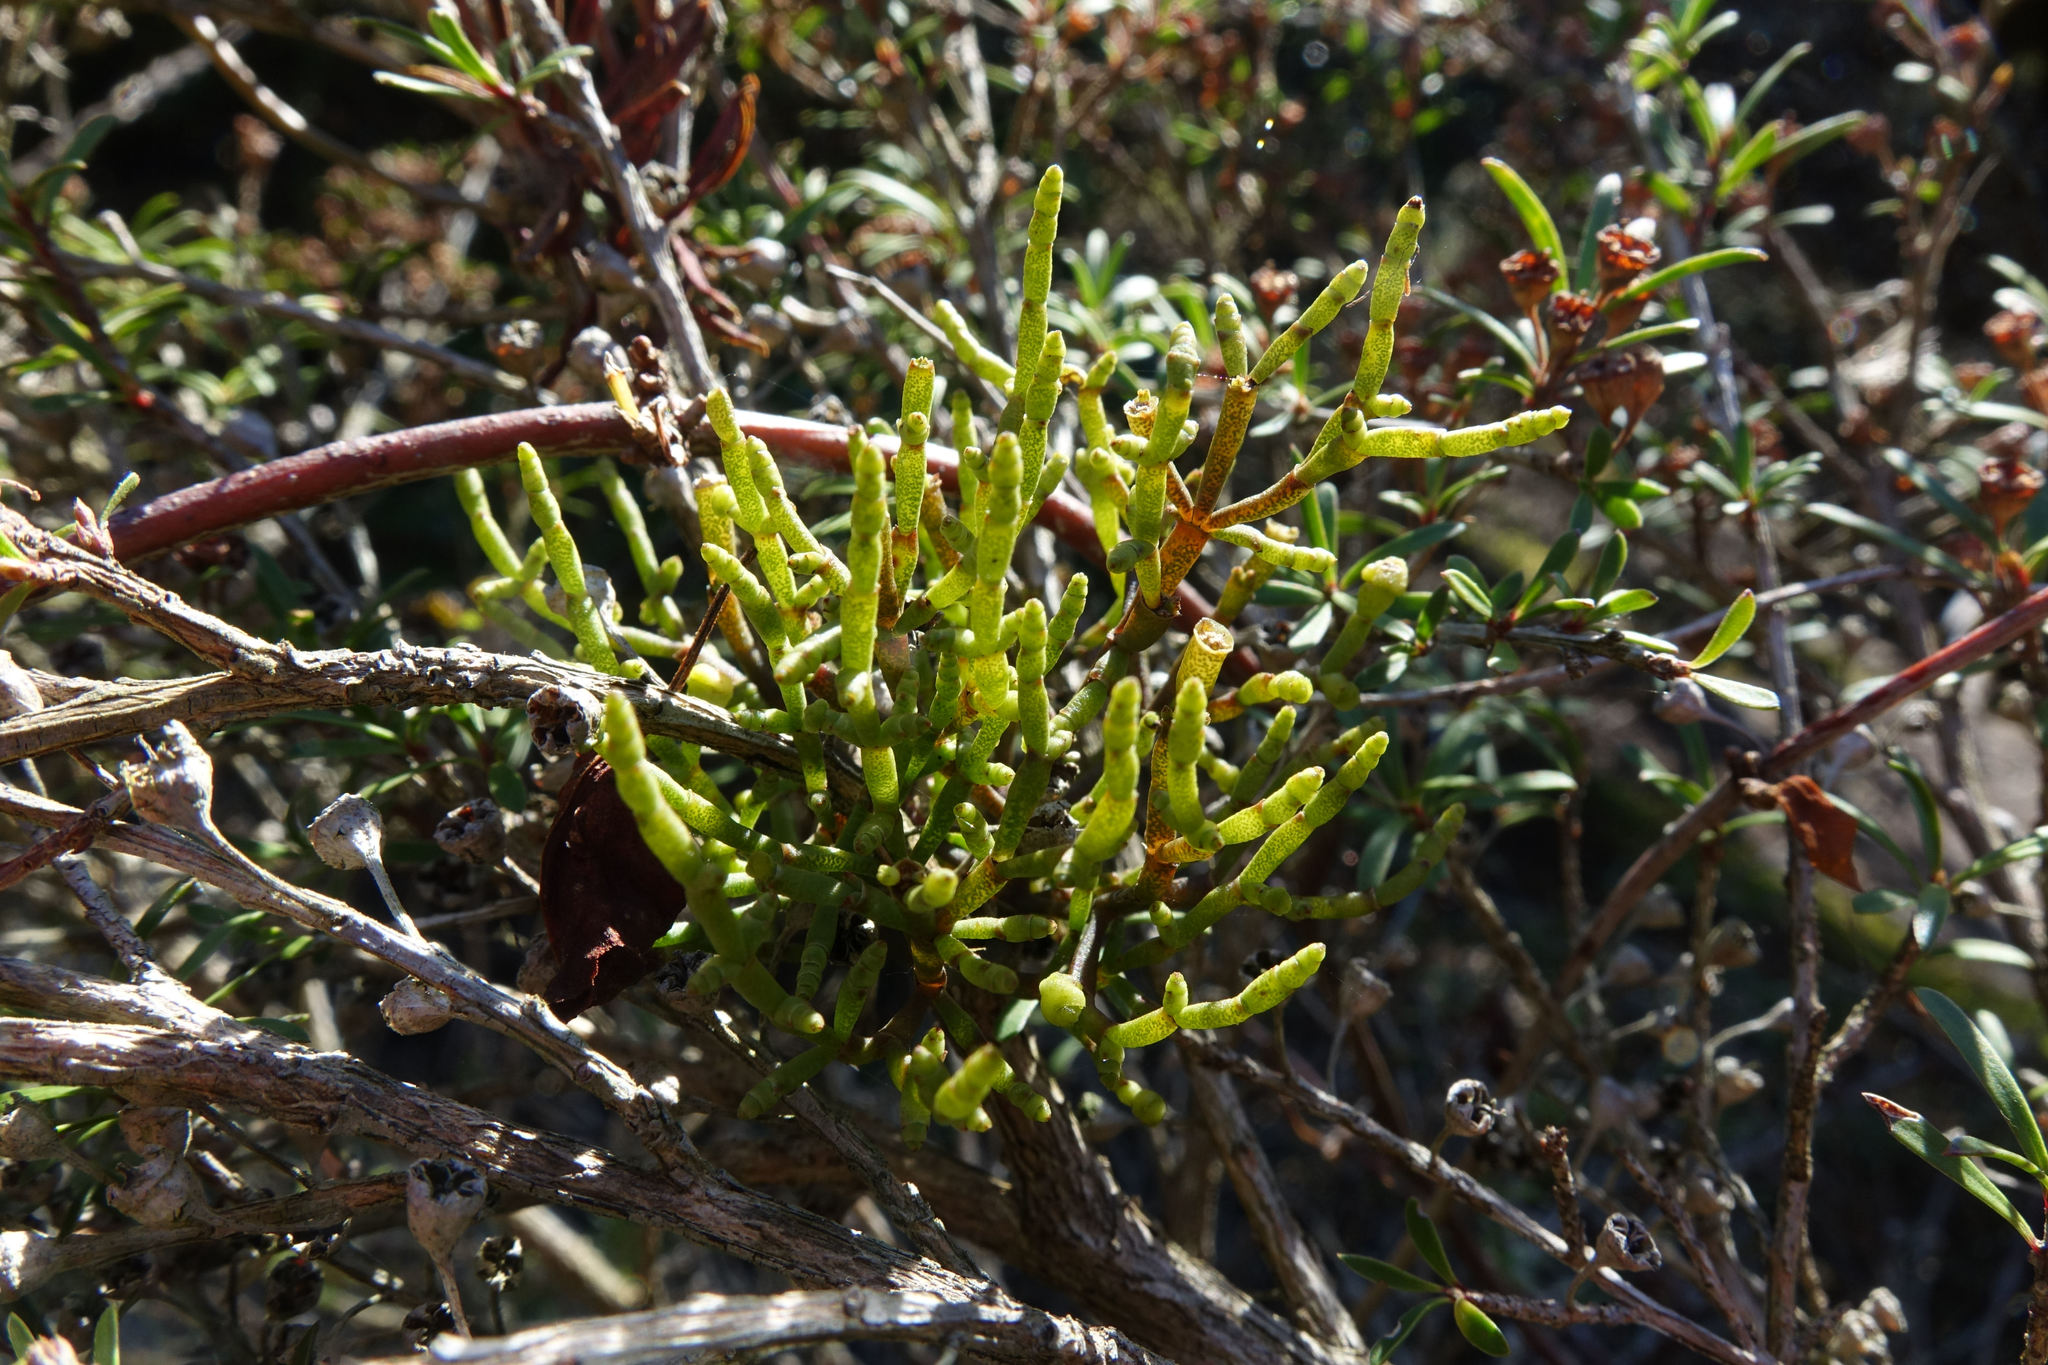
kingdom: Plantae
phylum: Tracheophyta
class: Magnoliopsida
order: Santalales
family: Viscaceae
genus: Korthalsella
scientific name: Korthalsella salicornioides
